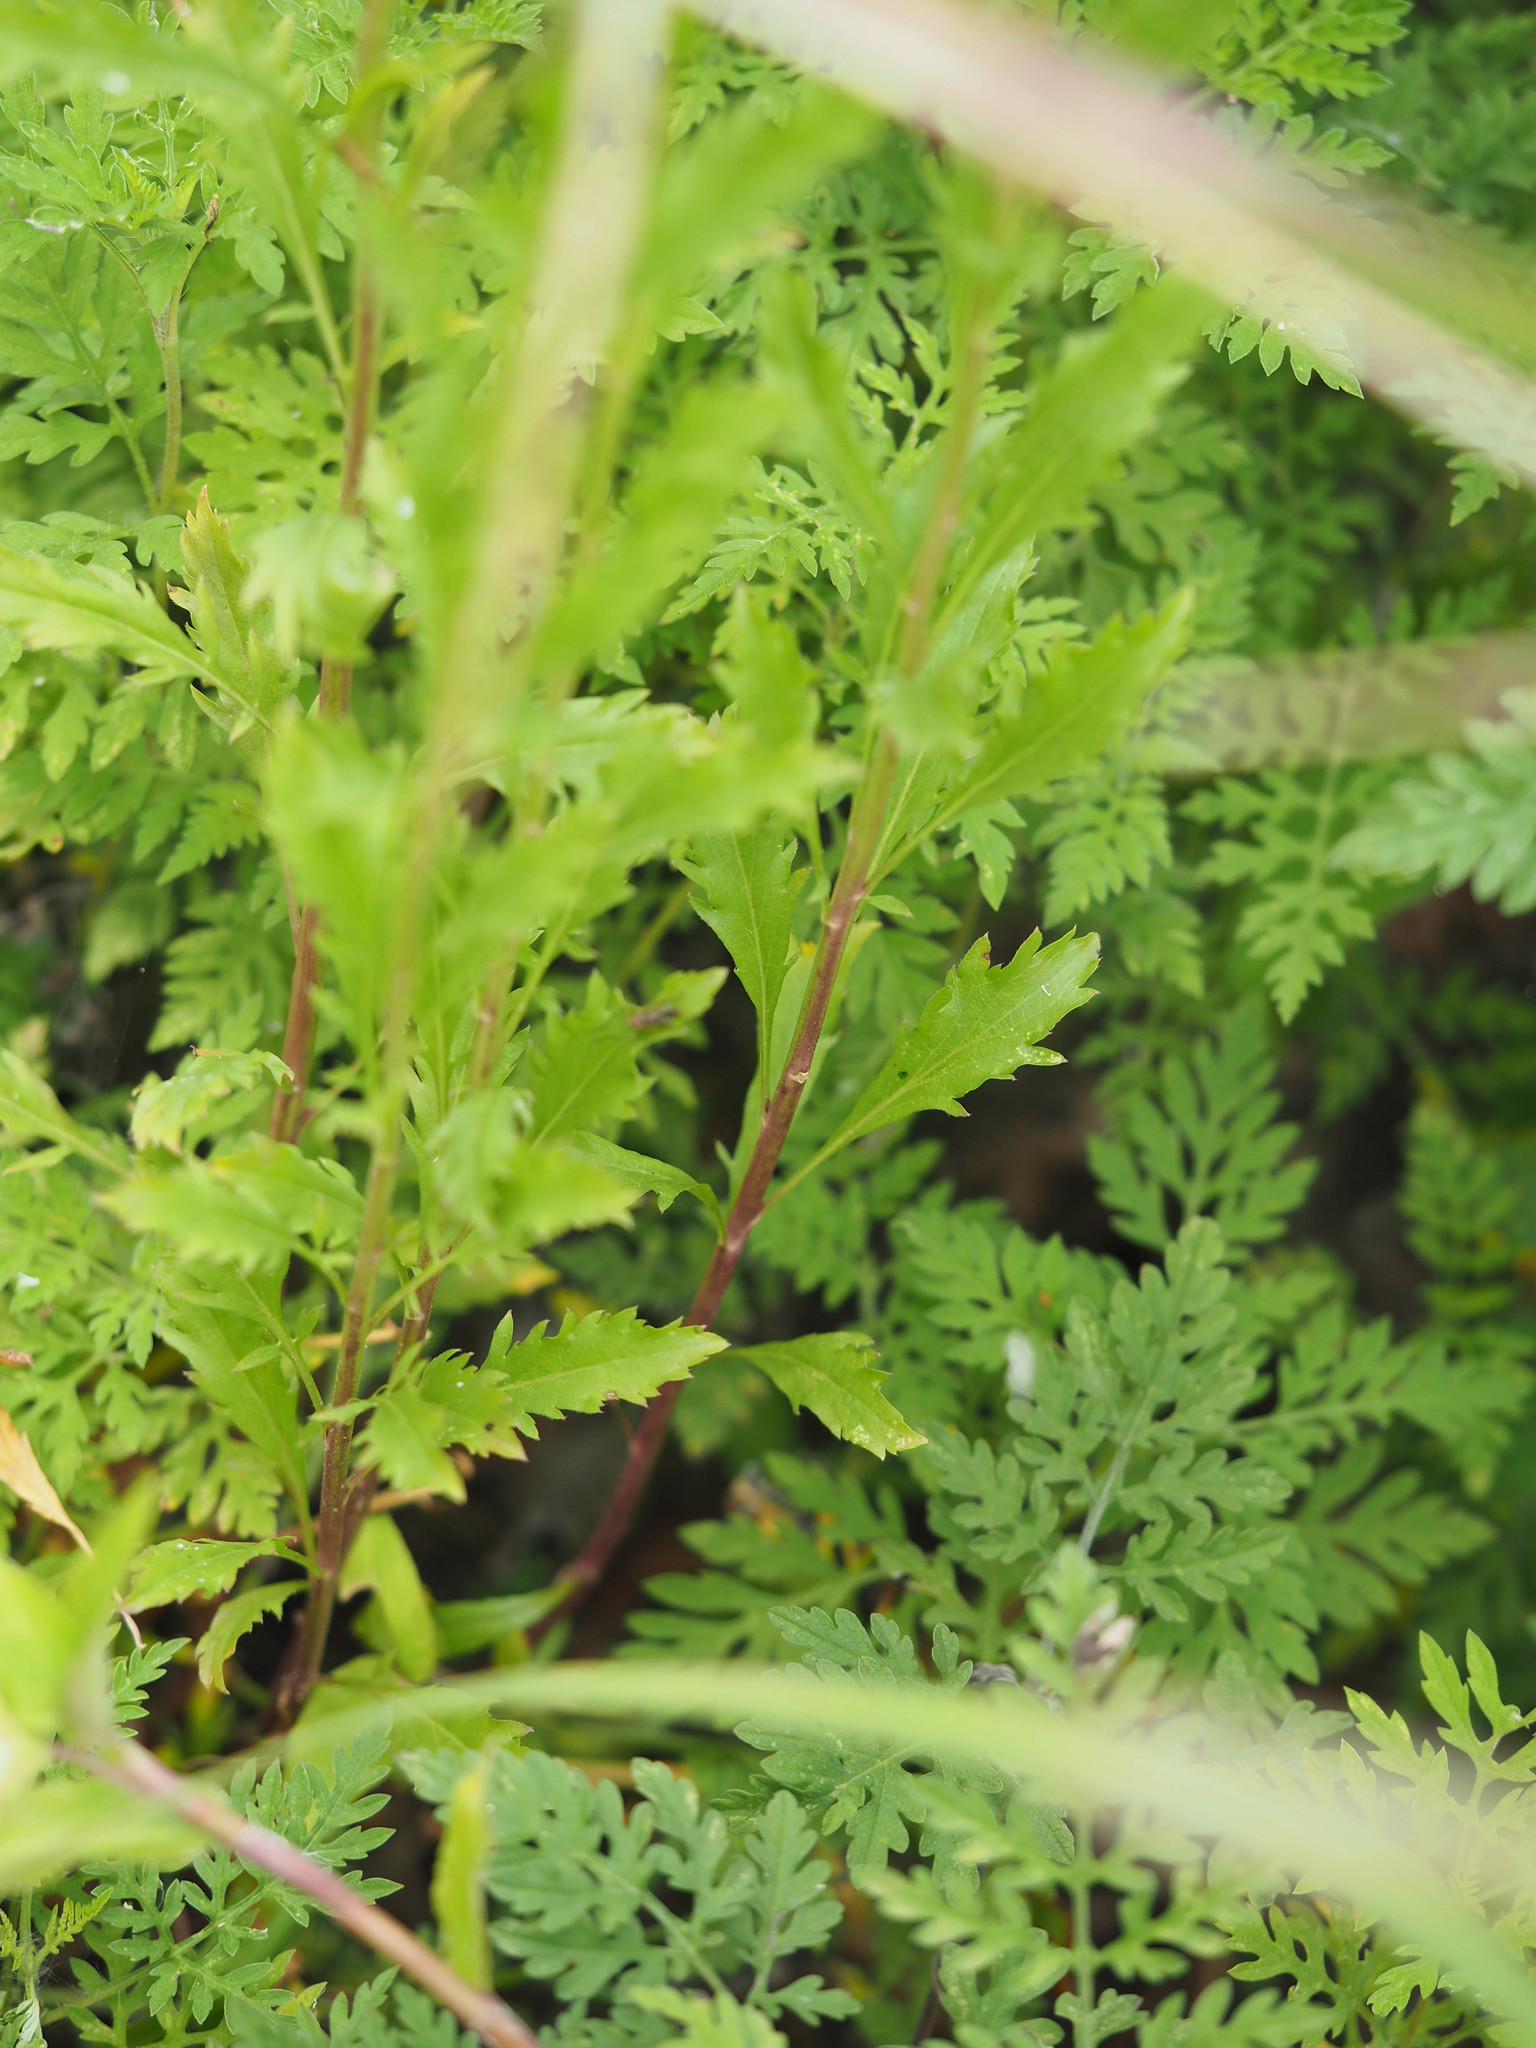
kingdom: Plantae
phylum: Tracheophyta
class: Magnoliopsida
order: Brassicales
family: Brassicaceae
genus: Lepidium
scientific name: Lepidium virginicum
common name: Least pepperwort
